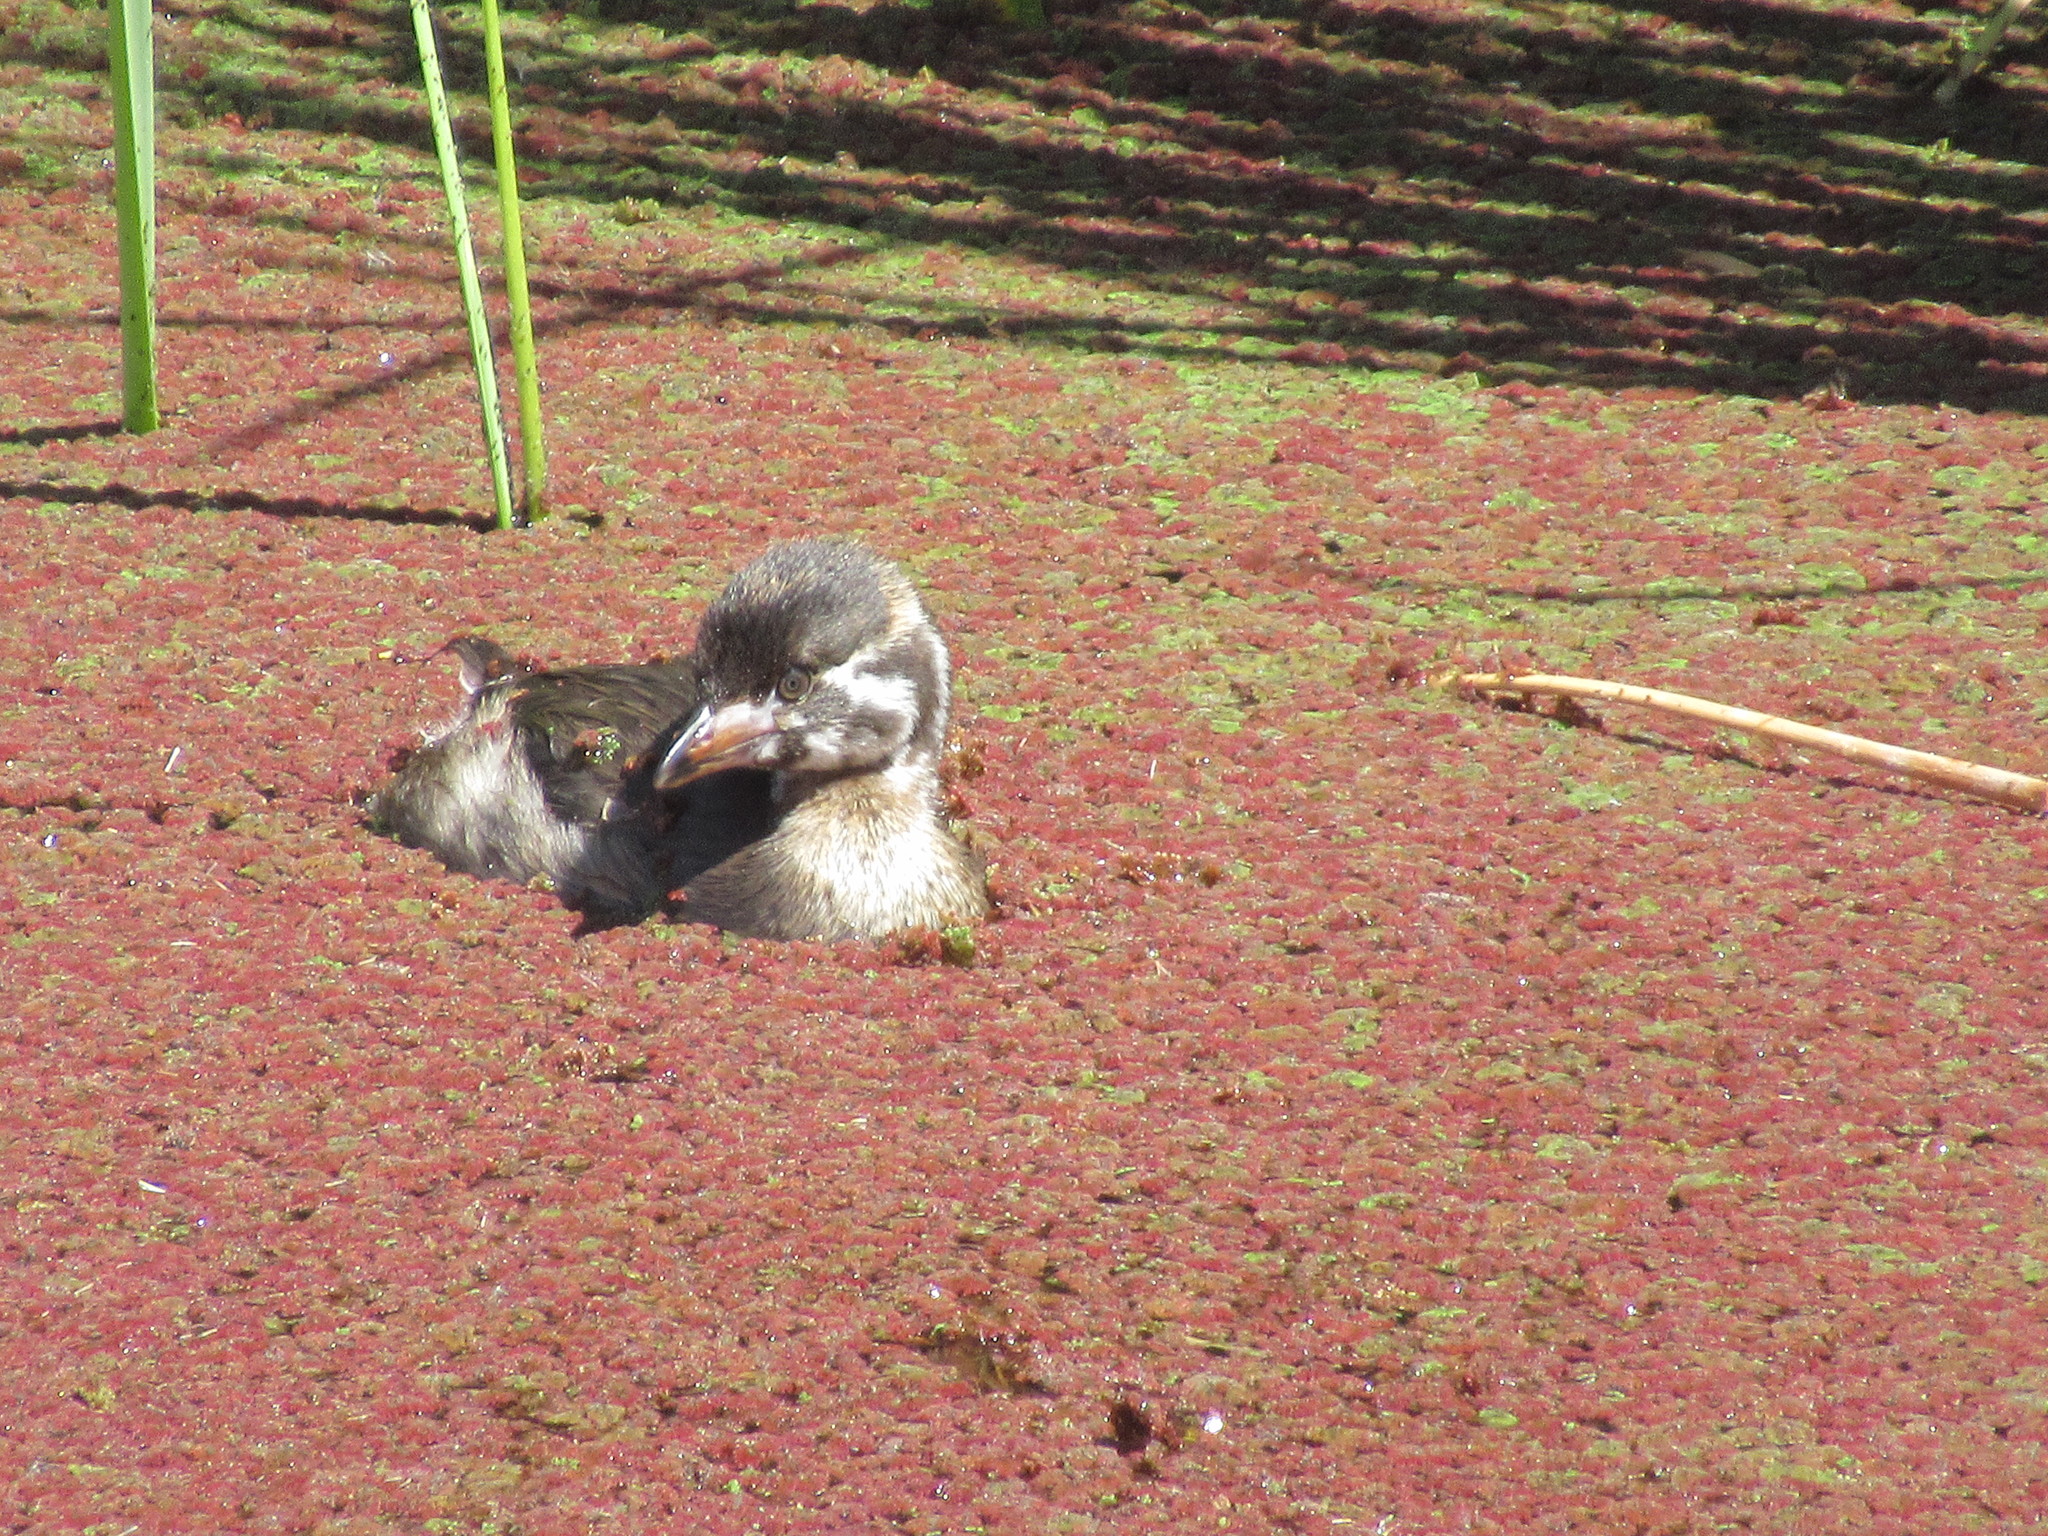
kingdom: Animalia
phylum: Chordata
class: Aves
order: Podicipediformes
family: Podicipedidae
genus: Podilymbus
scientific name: Podilymbus podiceps
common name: Pied-billed grebe
